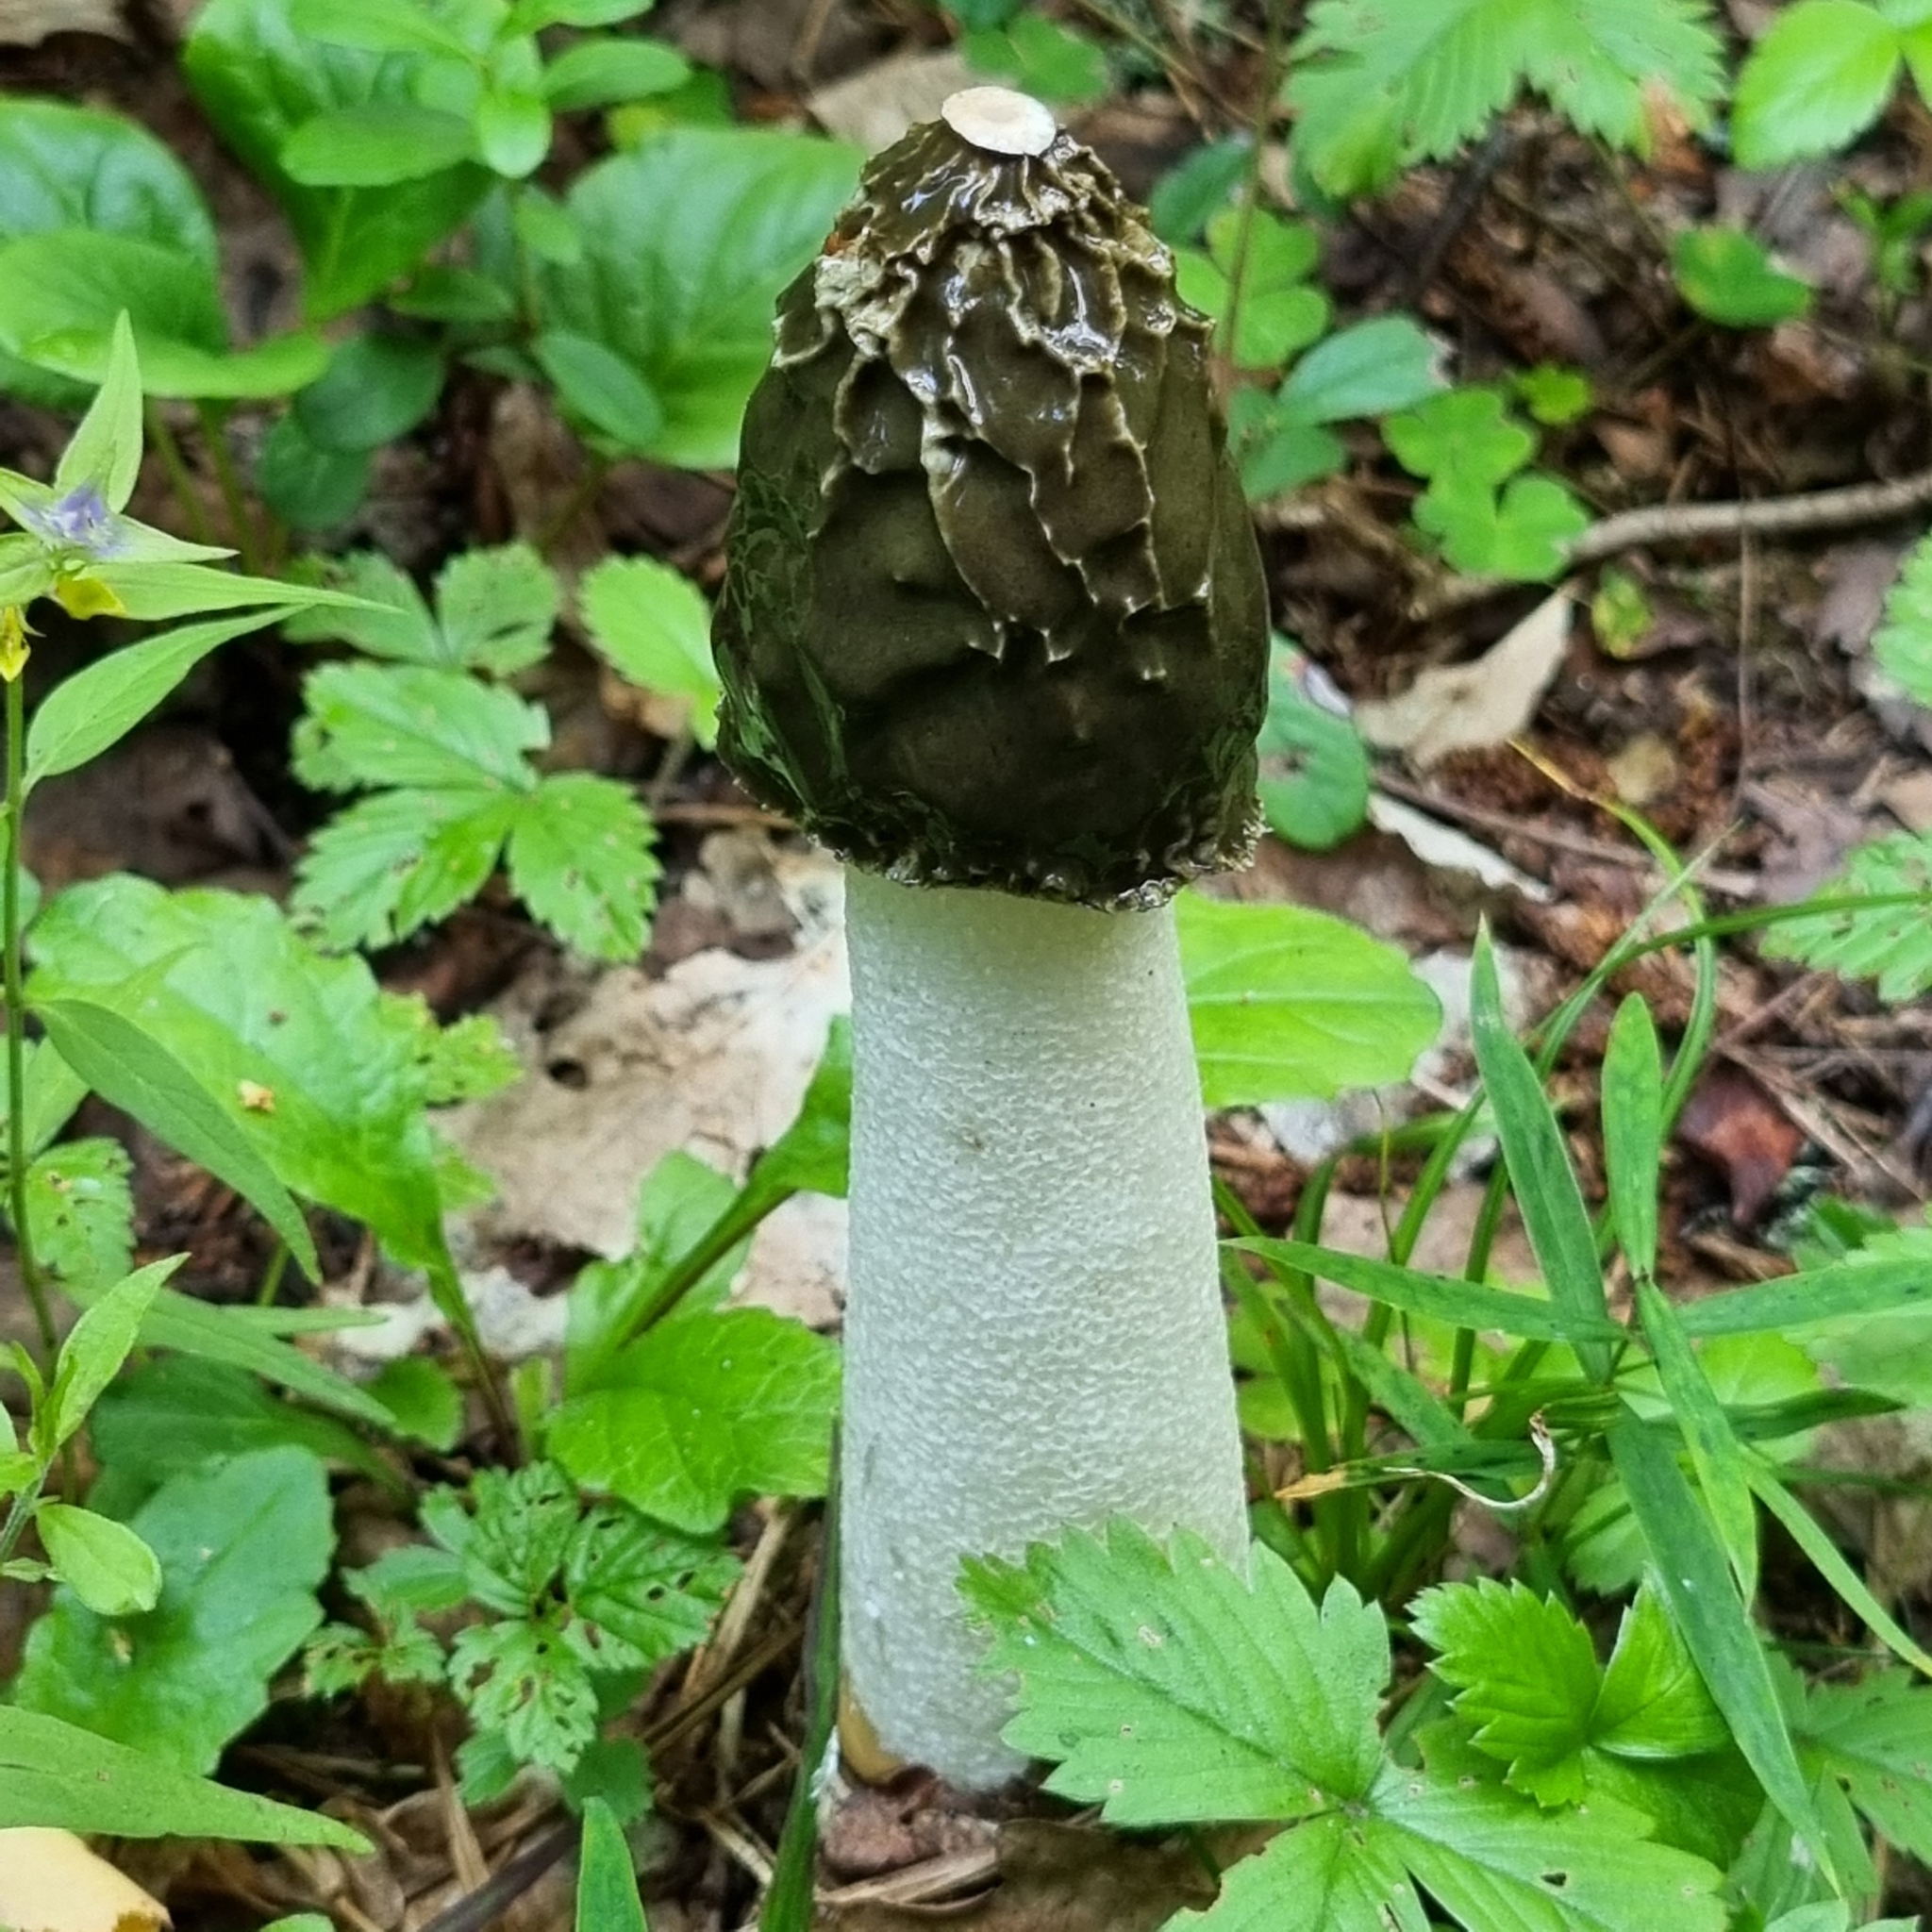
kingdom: Fungi
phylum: Basidiomycota
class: Agaricomycetes
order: Phallales
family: Phallaceae
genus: Phallus
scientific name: Phallus impudicus
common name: Common stinkhorn
